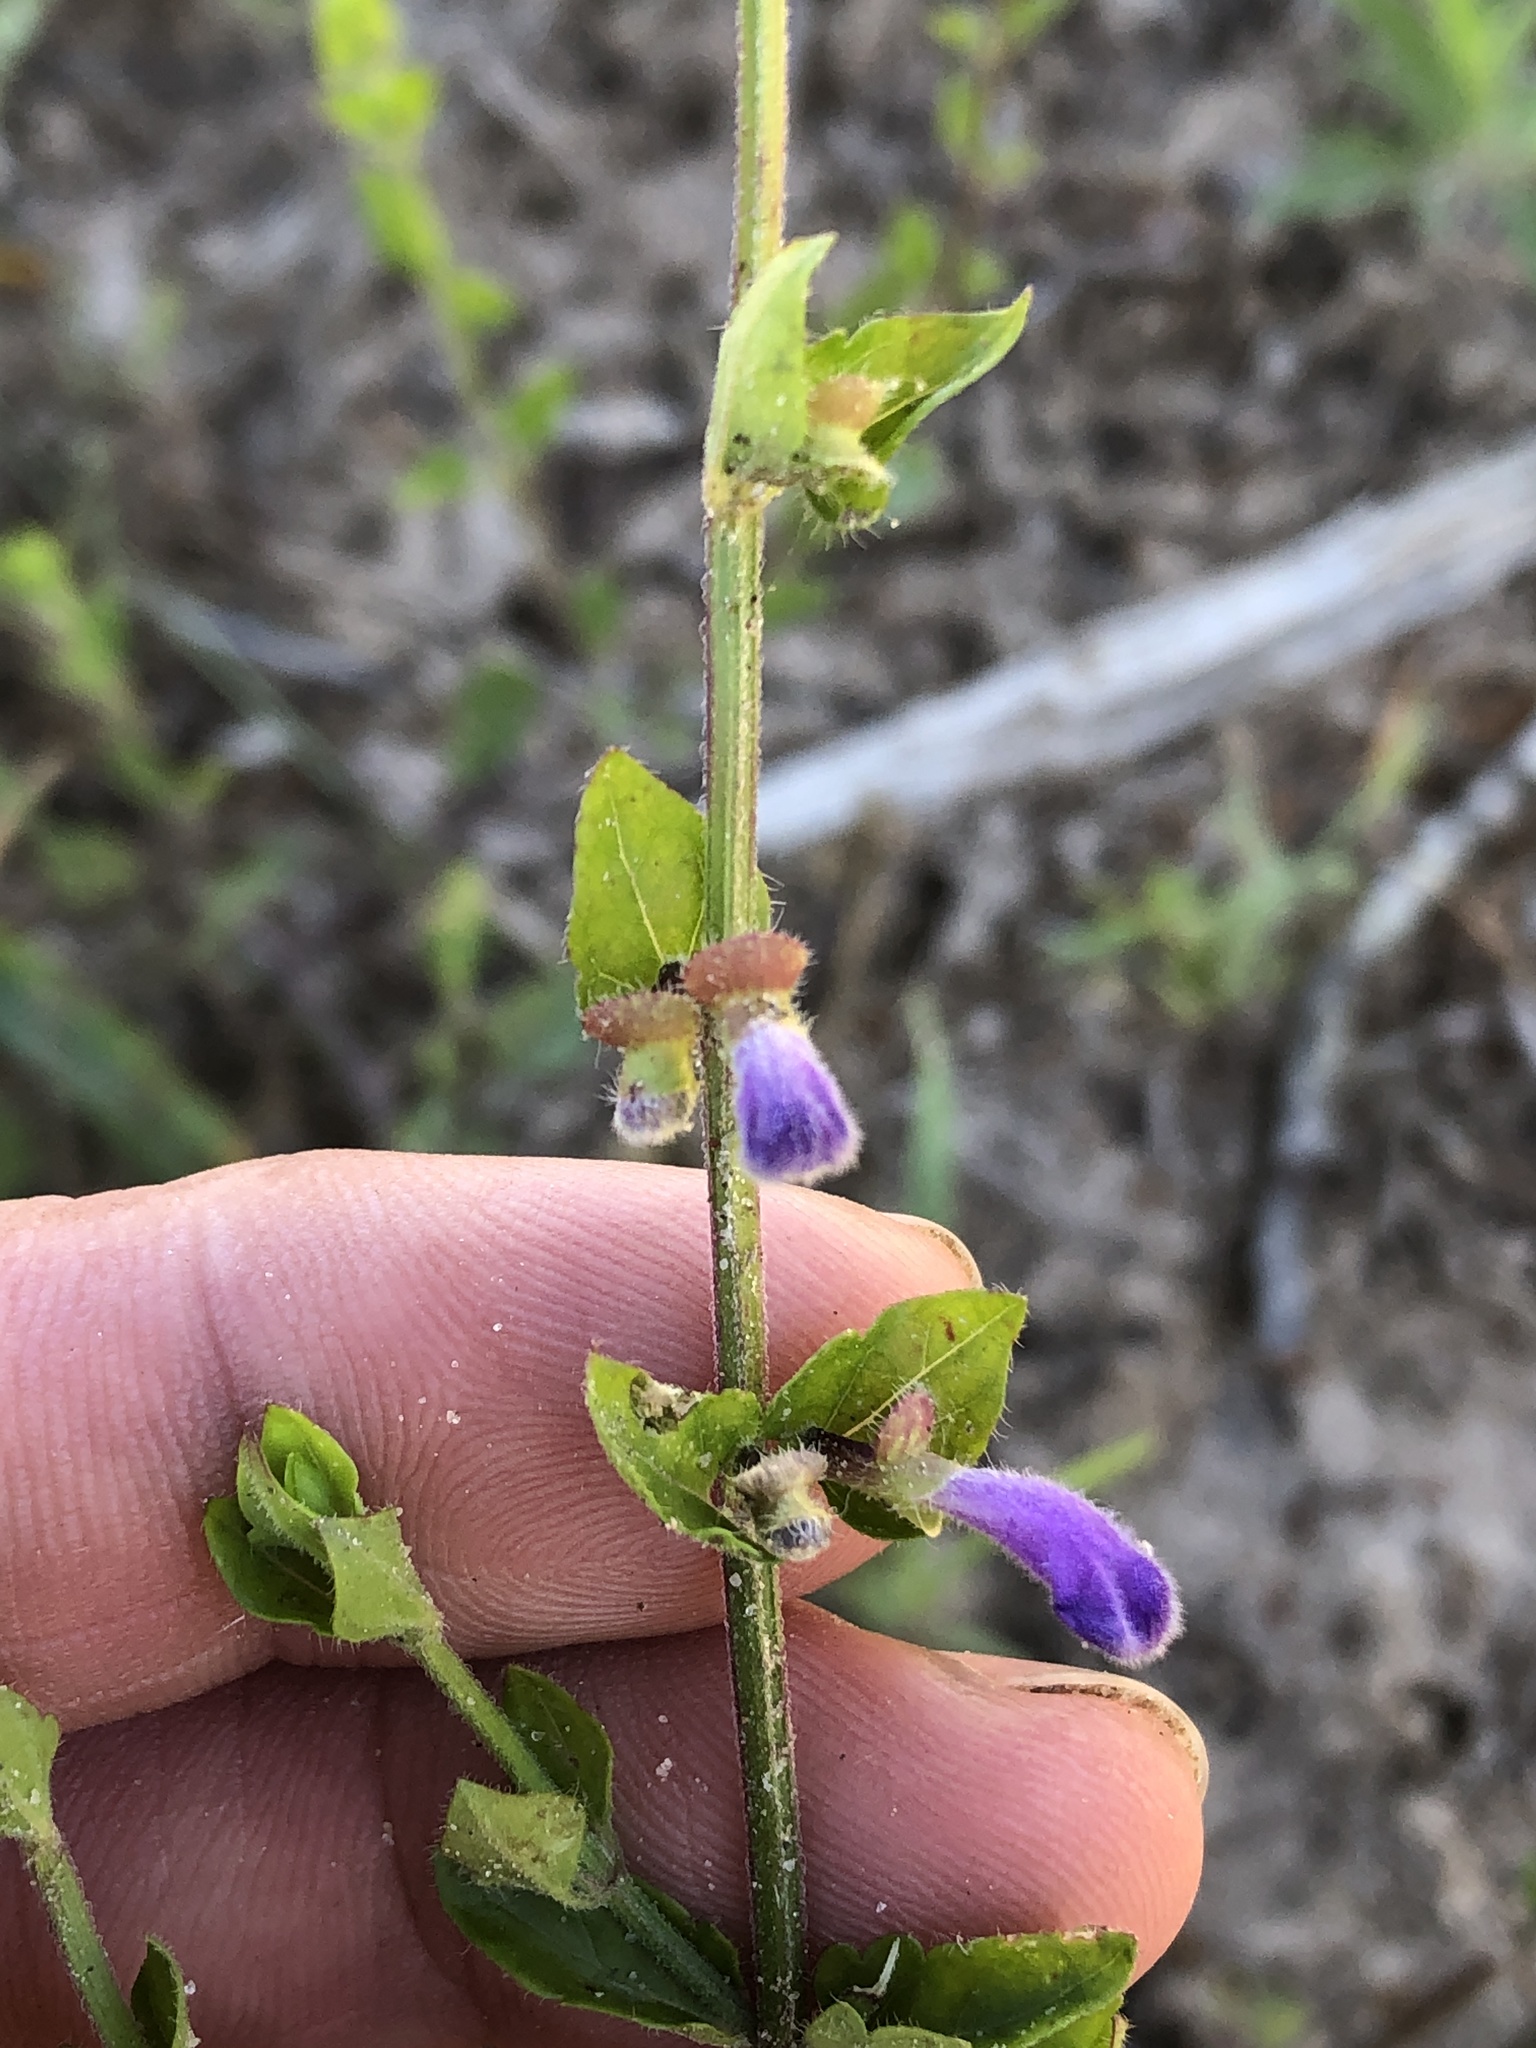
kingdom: Plantae
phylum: Tracheophyta
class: Magnoliopsida
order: Lamiales
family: Lamiaceae
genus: Scutellaria
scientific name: Scutellaria cardiophylla
